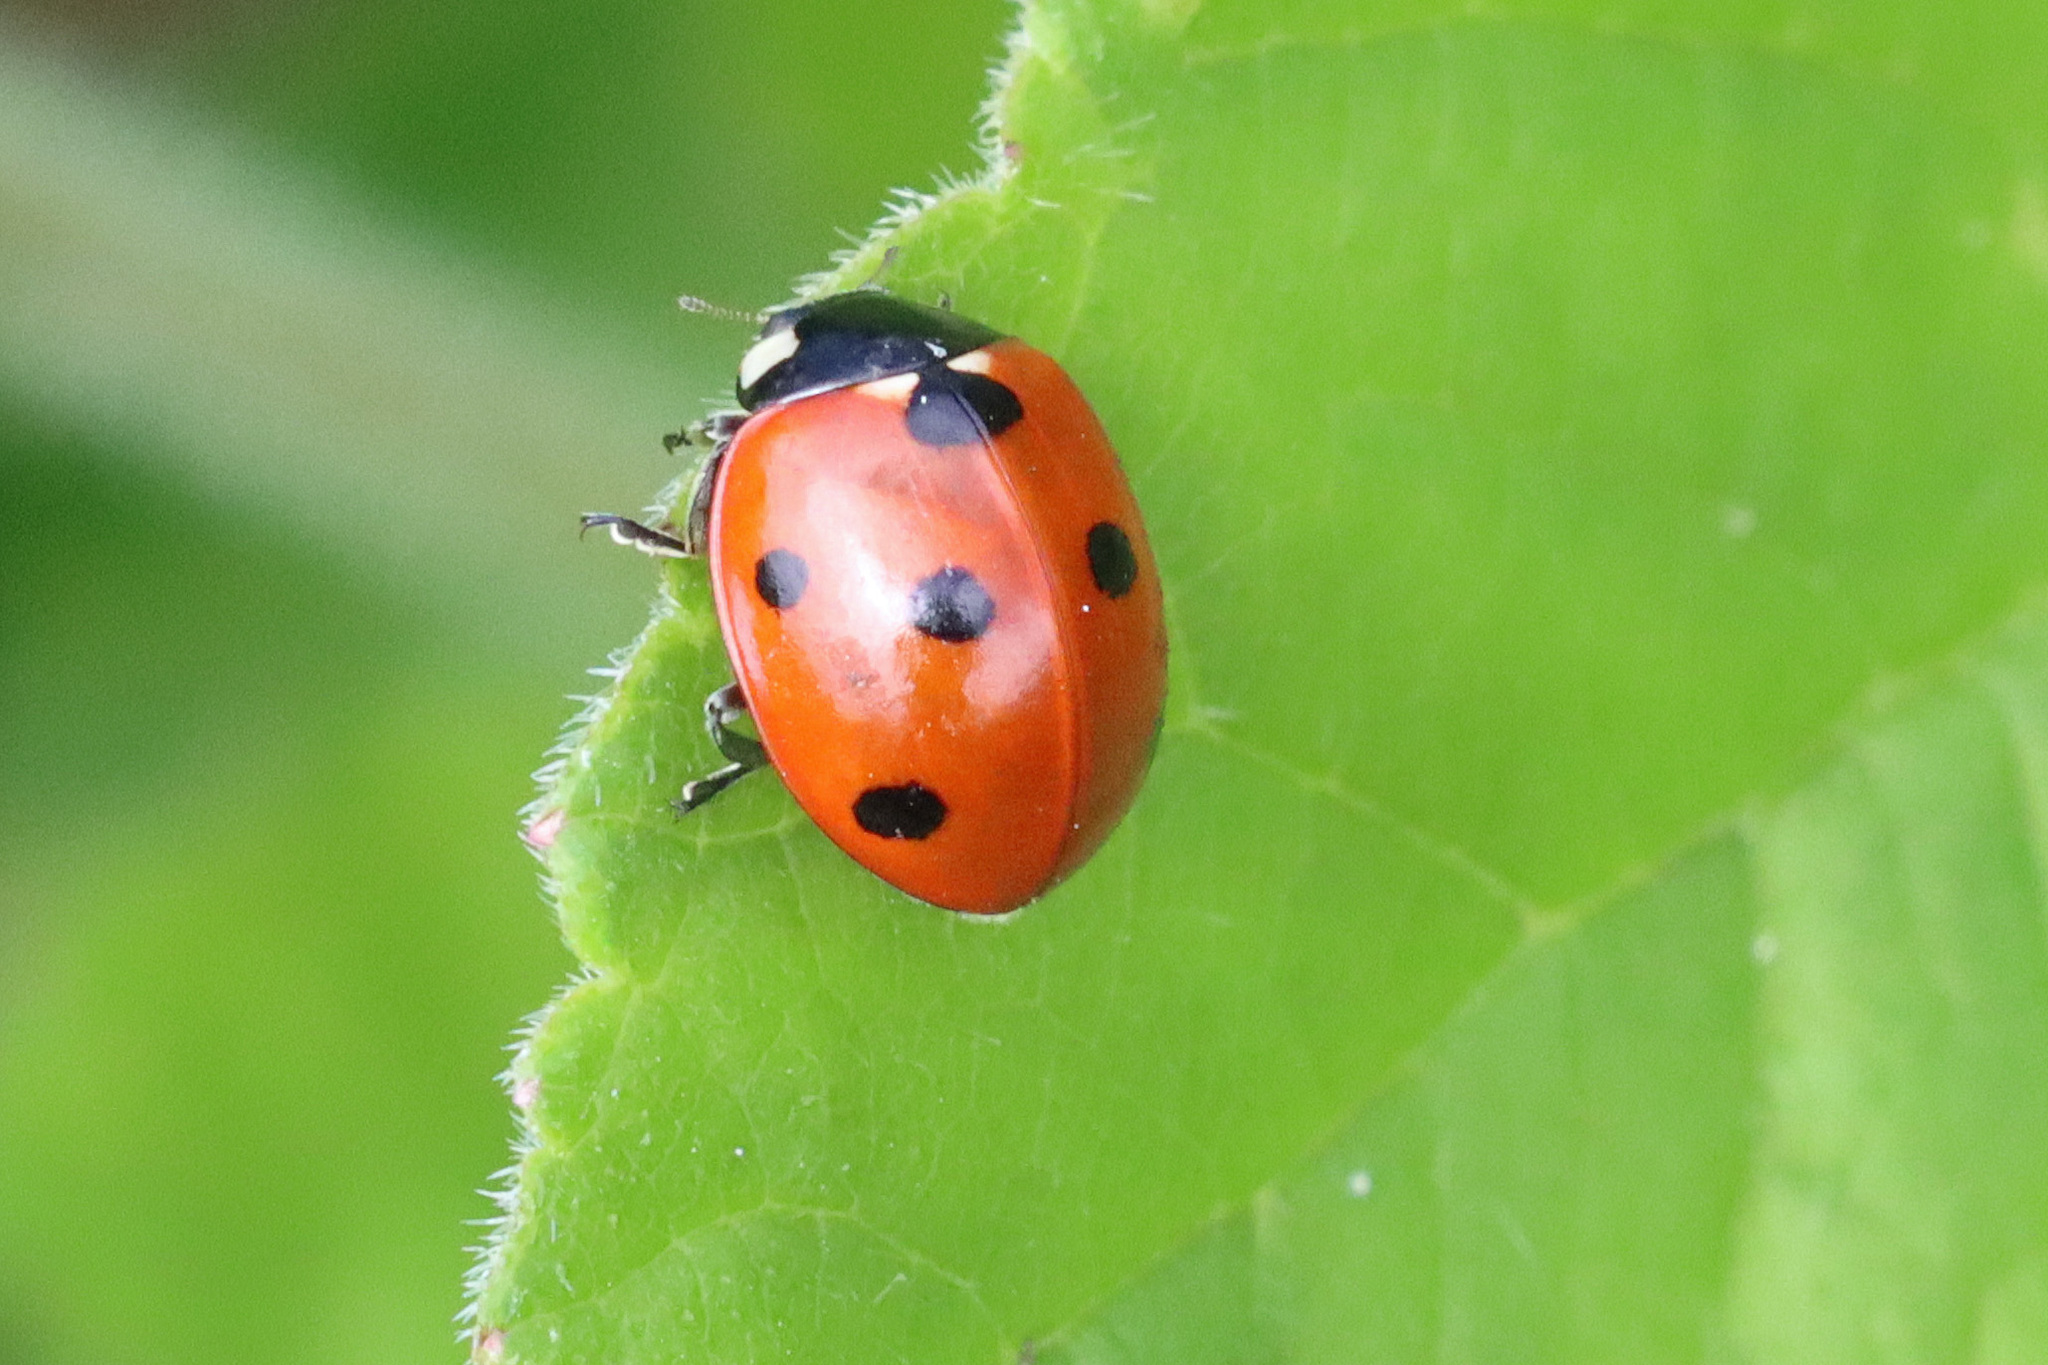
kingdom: Animalia
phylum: Arthropoda
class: Insecta
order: Coleoptera
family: Coccinellidae
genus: Coccinella
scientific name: Coccinella septempunctata
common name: Sevenspotted lady beetle
